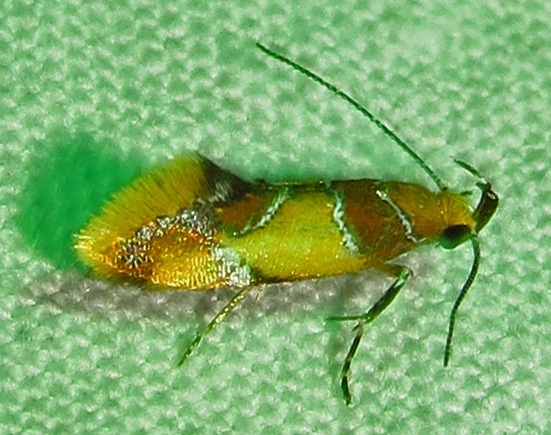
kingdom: Animalia
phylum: Arthropoda
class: Insecta
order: Lepidoptera
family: Oecophoridae
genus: Callima
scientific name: Callima argenticinctella
